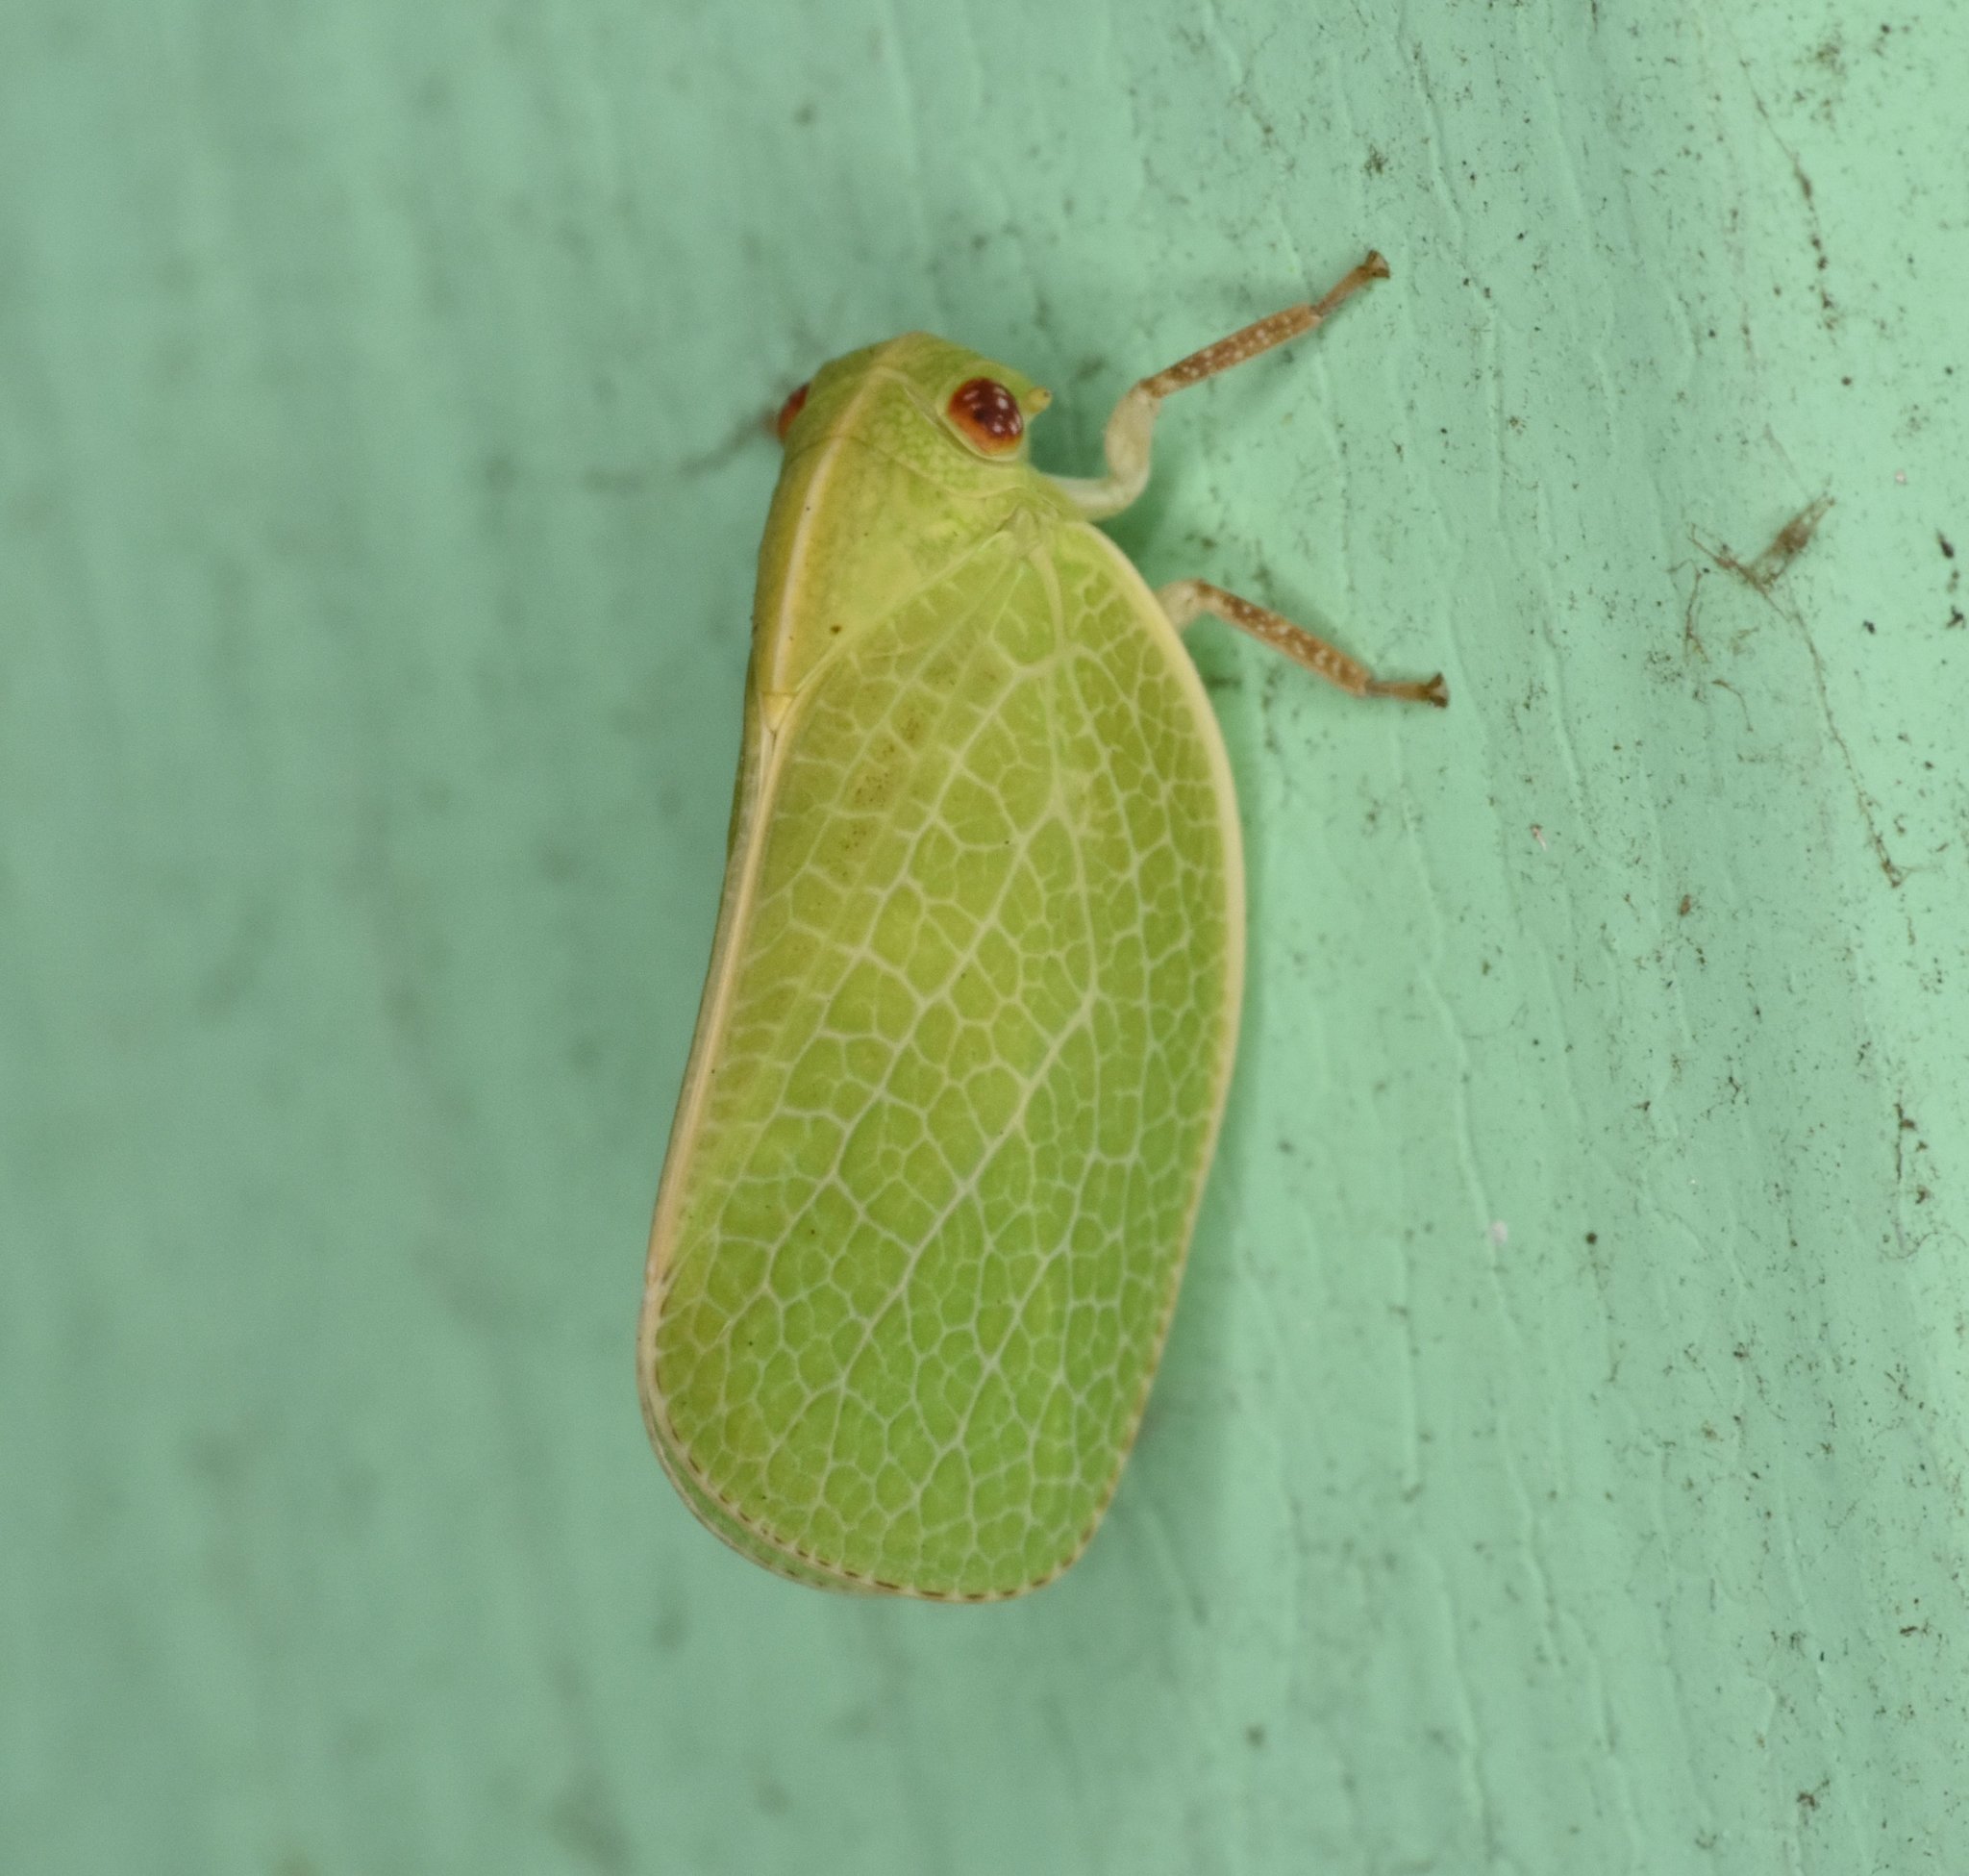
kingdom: Animalia
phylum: Arthropoda
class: Insecta
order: Hemiptera
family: Acanaloniidae
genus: Acanalonia
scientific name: Acanalonia servillei
